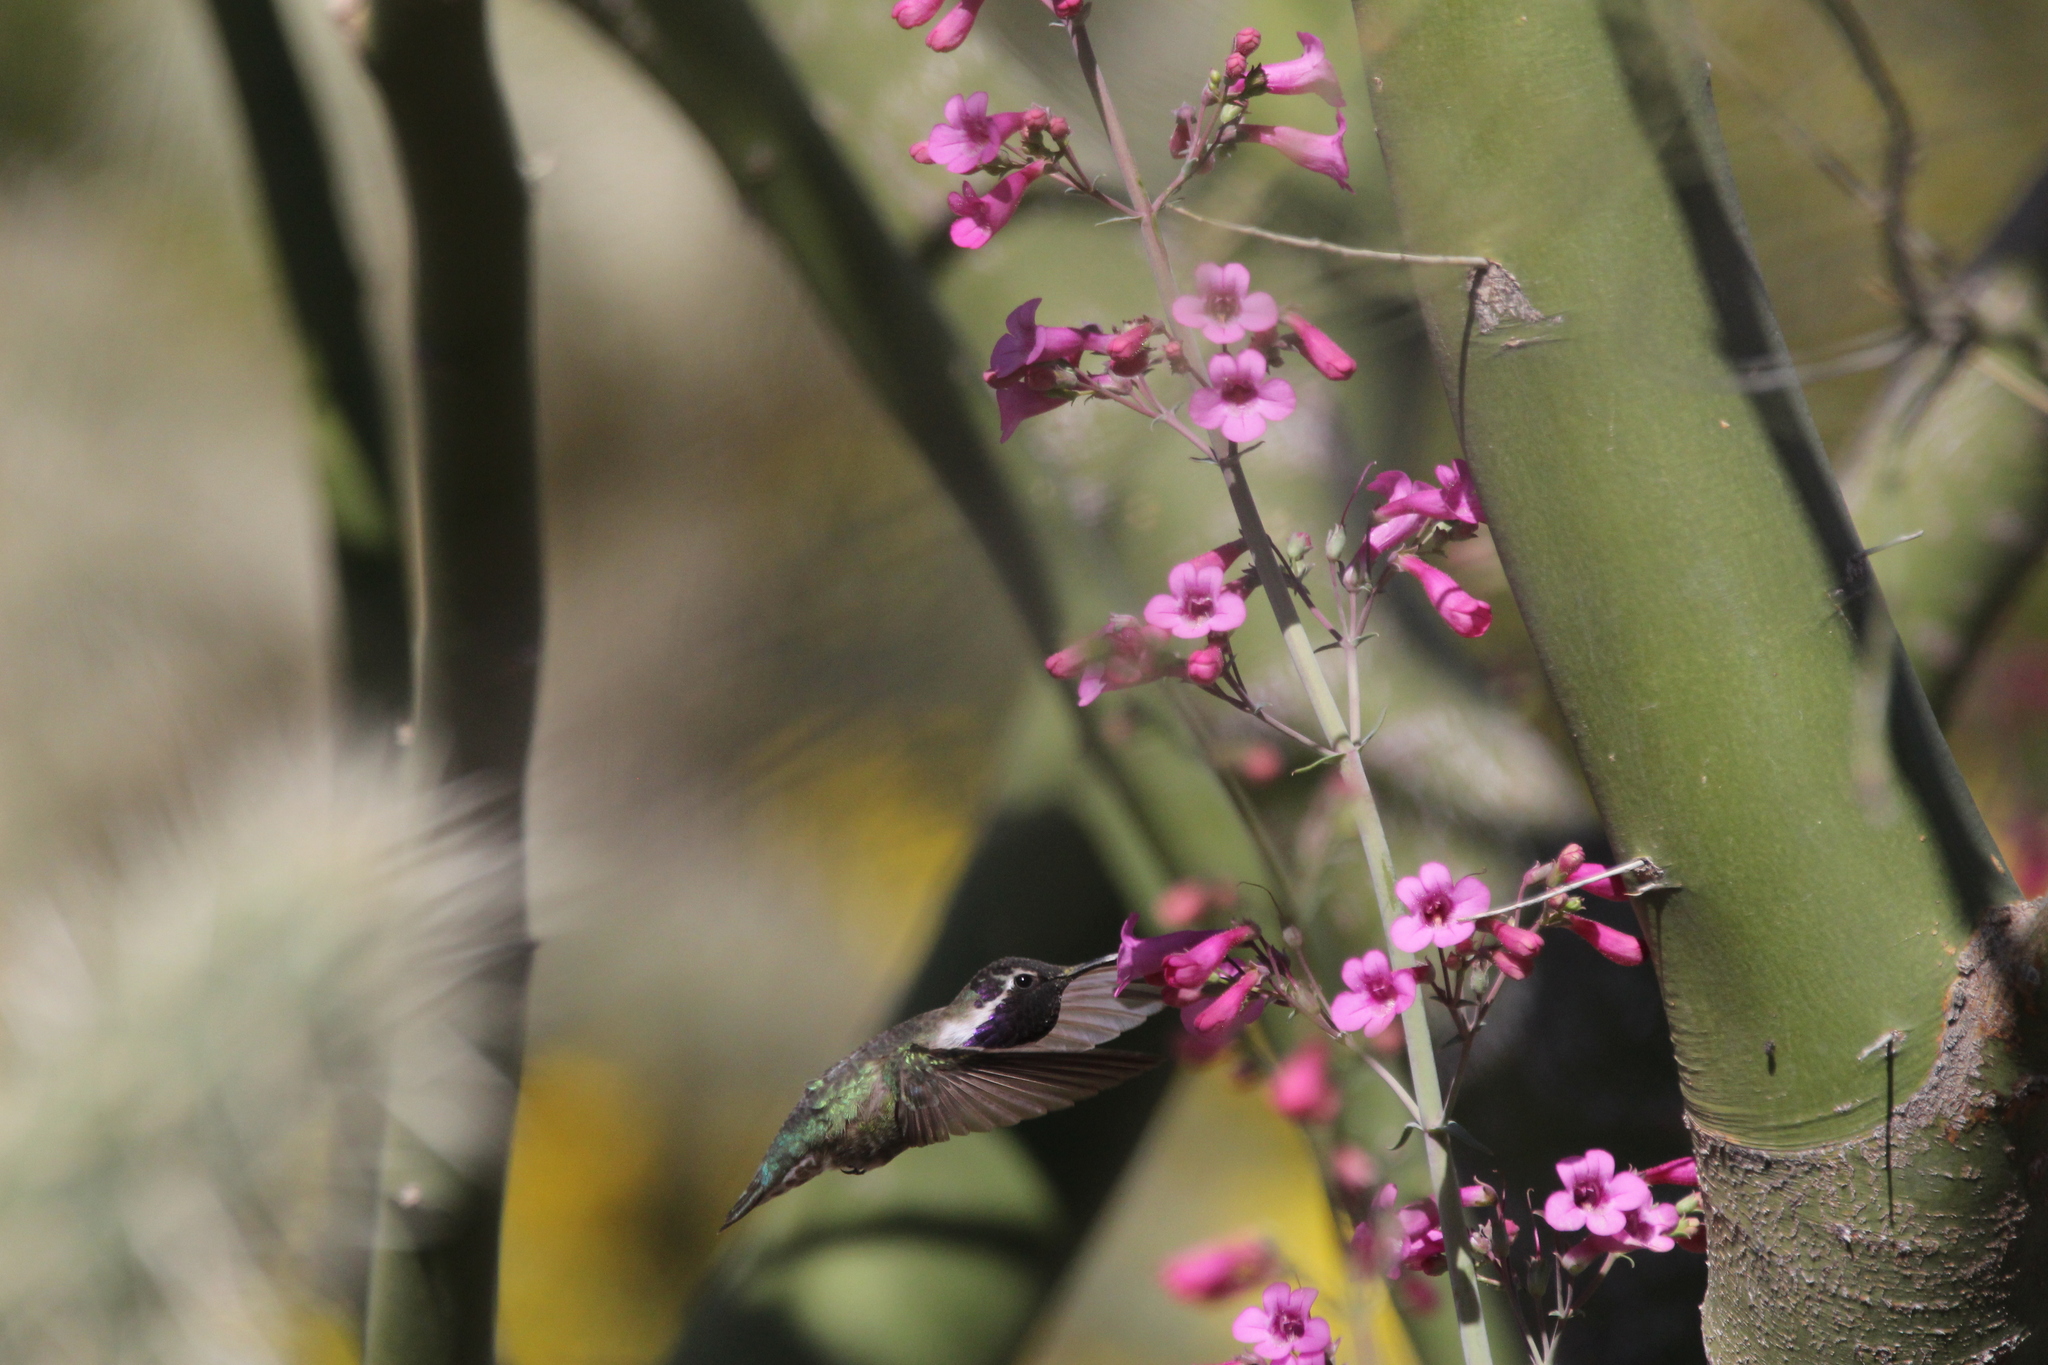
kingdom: Animalia
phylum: Chordata
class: Aves
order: Apodiformes
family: Trochilidae
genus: Calypte
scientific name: Calypte costae
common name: Costa's hummingbird
